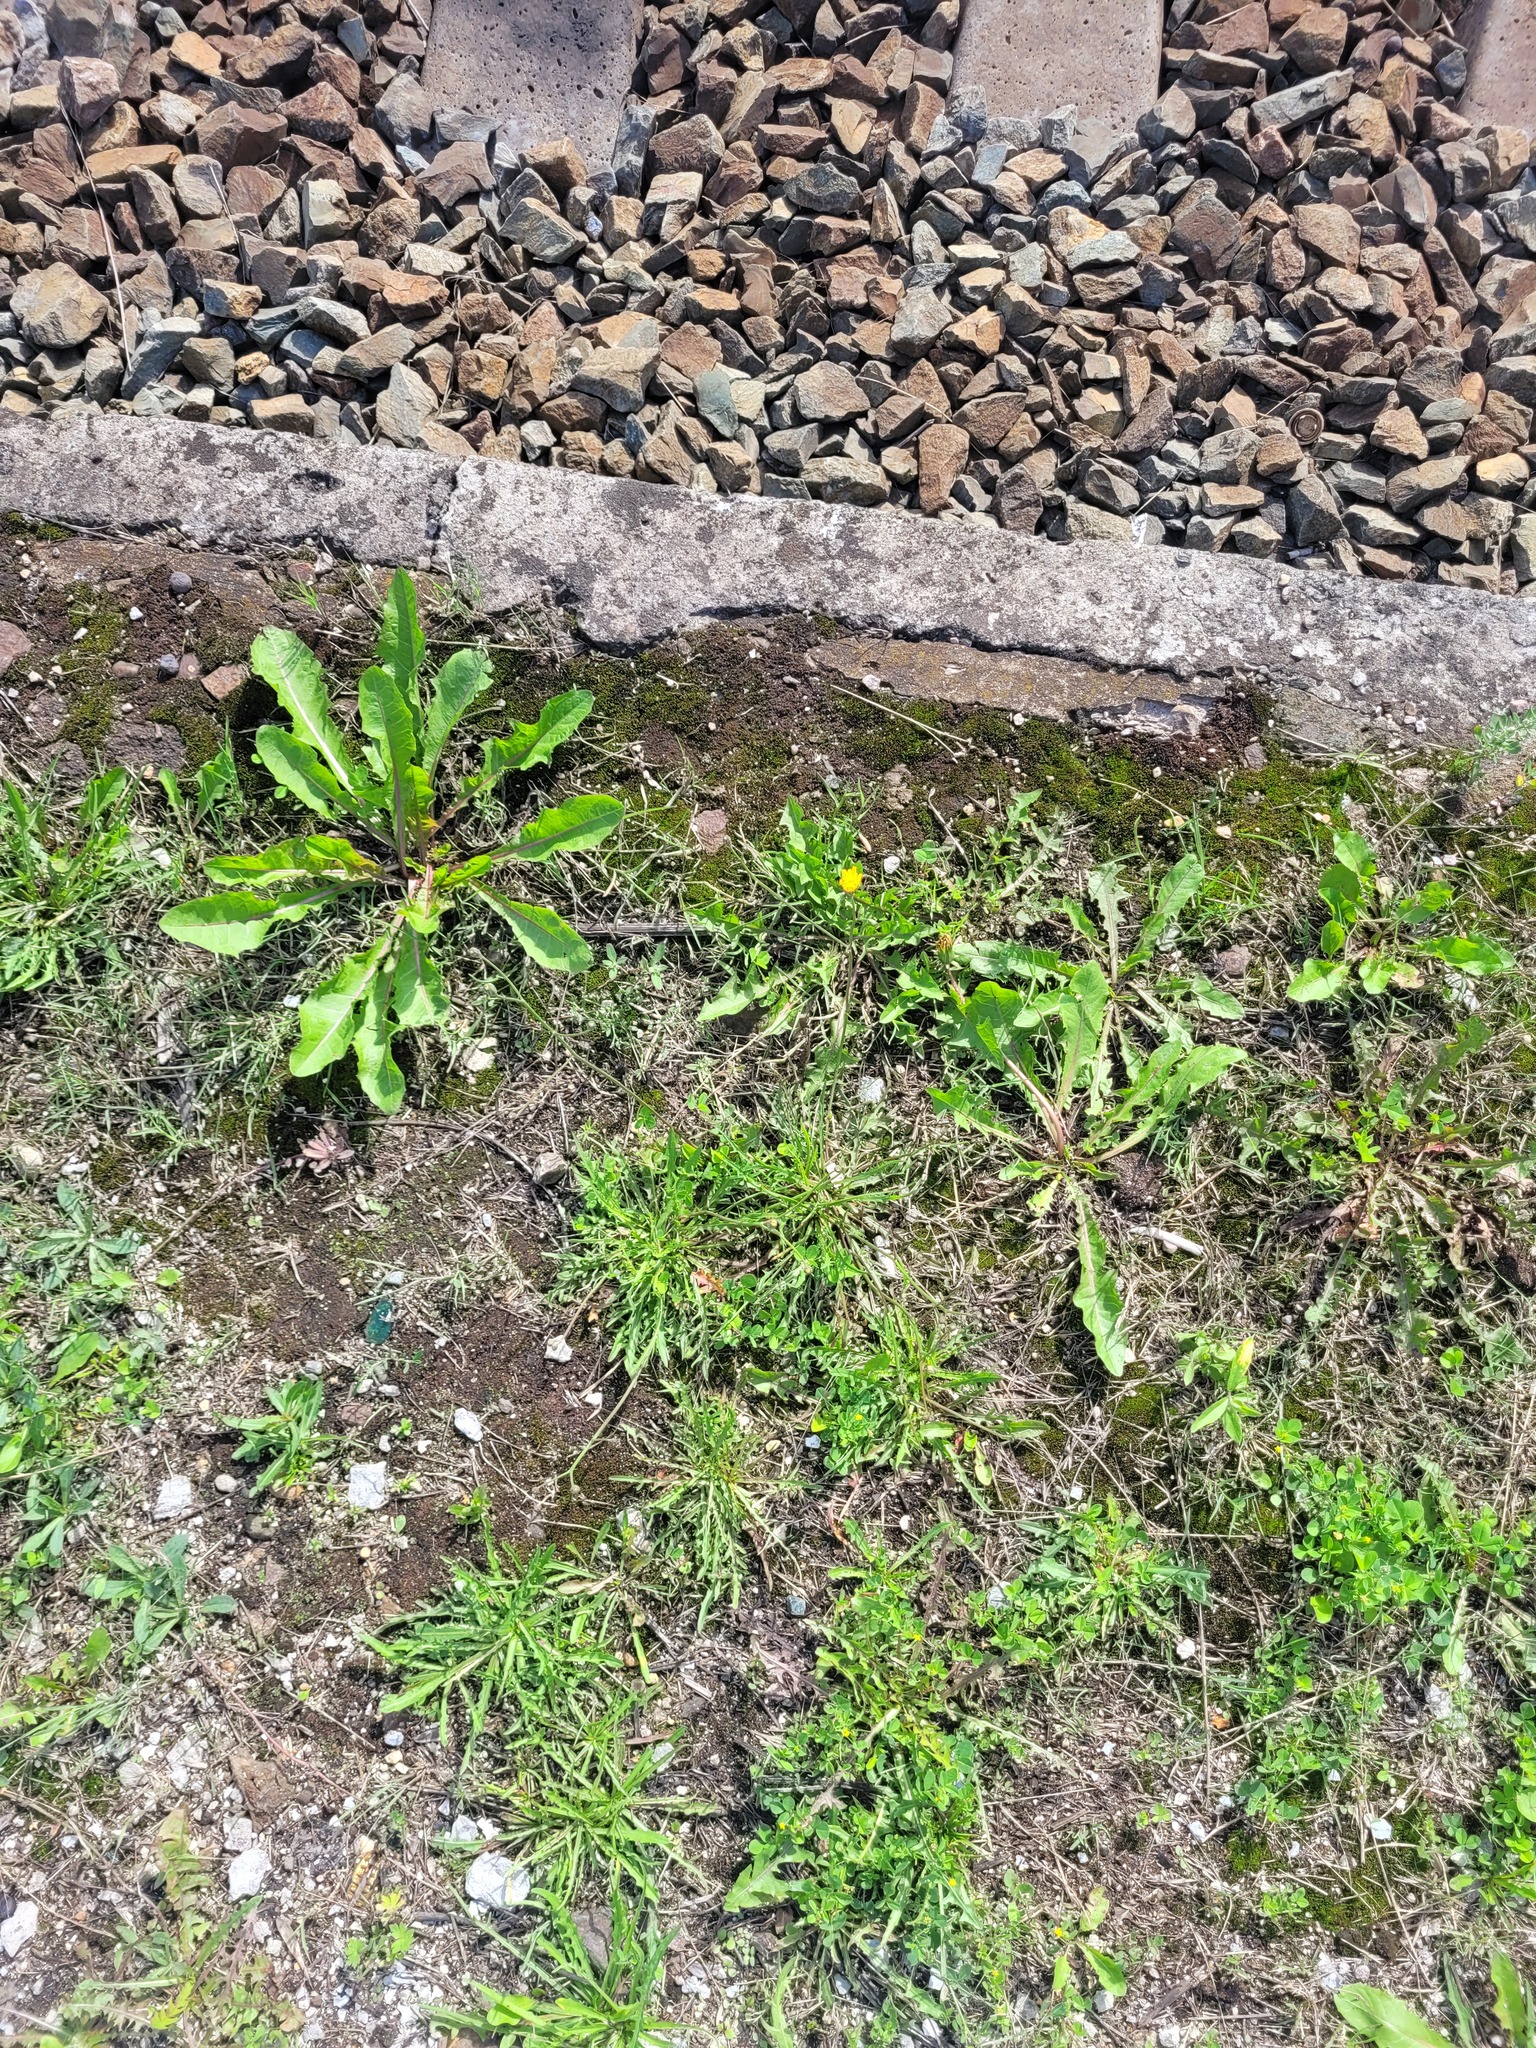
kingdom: Plantae
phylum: Tracheophyta
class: Magnoliopsida
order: Asterales
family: Asteraceae
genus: Scorzoneroides
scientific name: Scorzoneroides autumnalis
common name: Autumn hawkbit
